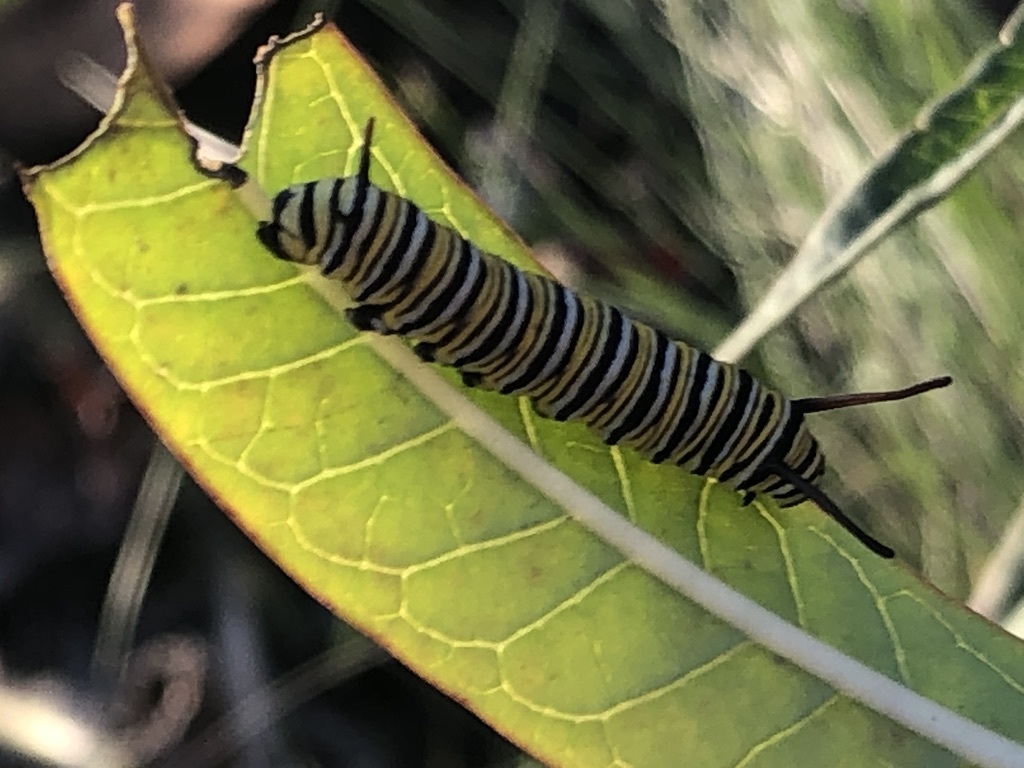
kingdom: Animalia
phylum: Arthropoda
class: Insecta
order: Lepidoptera
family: Nymphalidae
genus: Danaus
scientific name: Danaus plexippus
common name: Monarch
